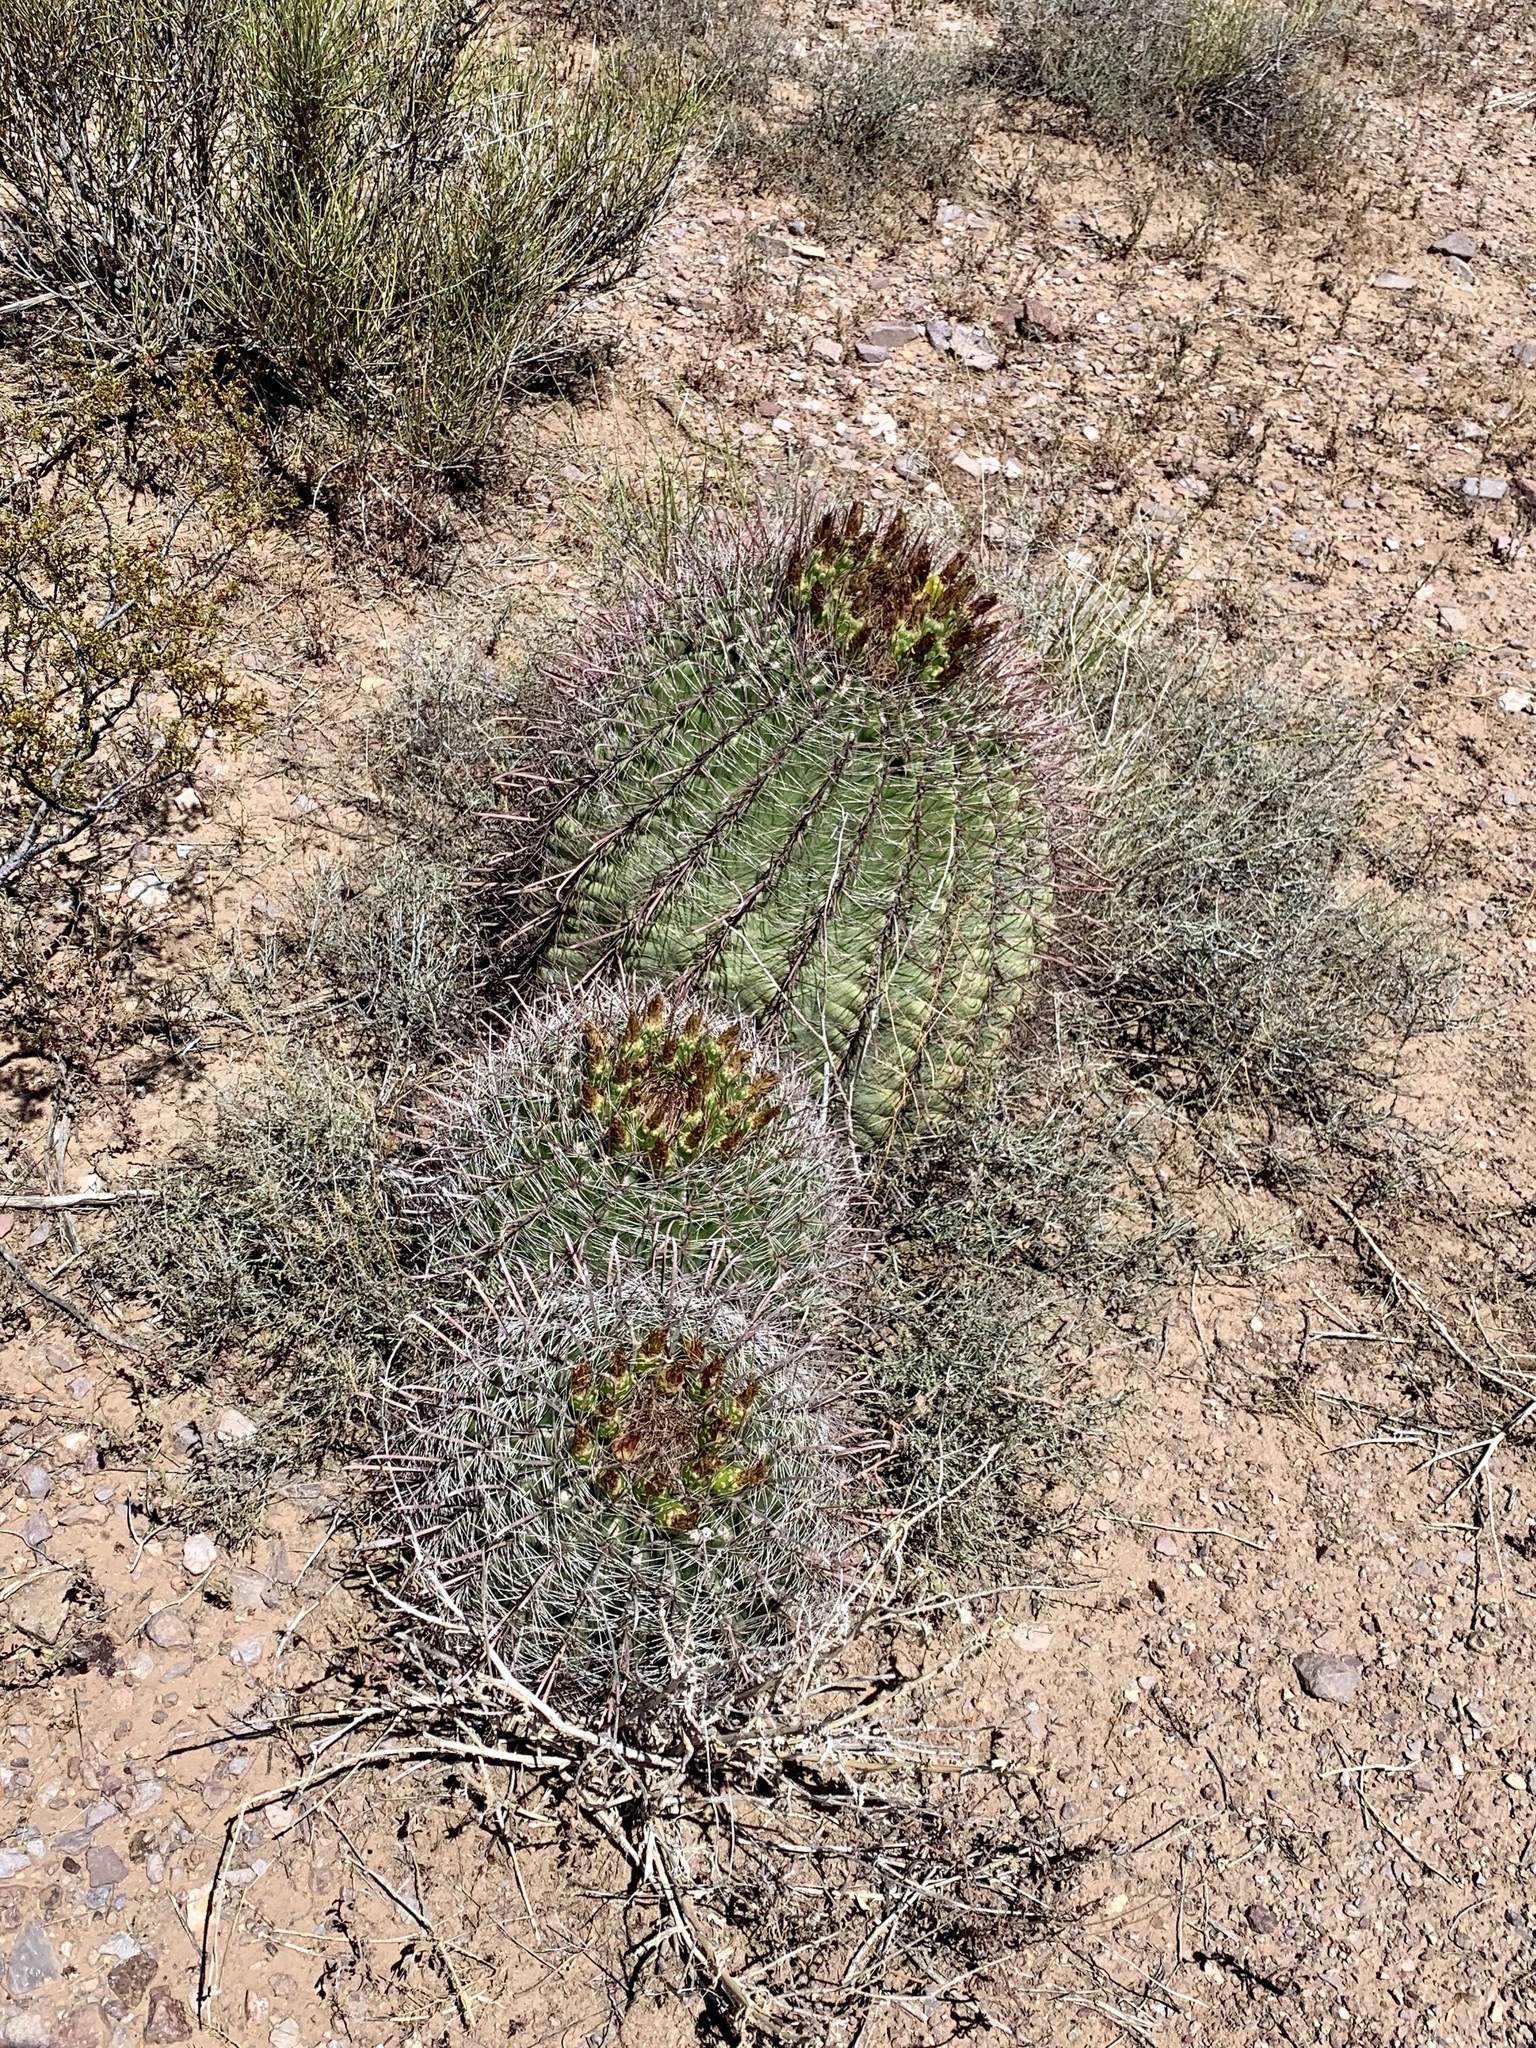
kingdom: Plantae
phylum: Tracheophyta
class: Magnoliopsida
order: Caryophyllales
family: Cactaceae
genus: Ferocactus
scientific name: Ferocactus wislizeni
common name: Candy barrel cactus
